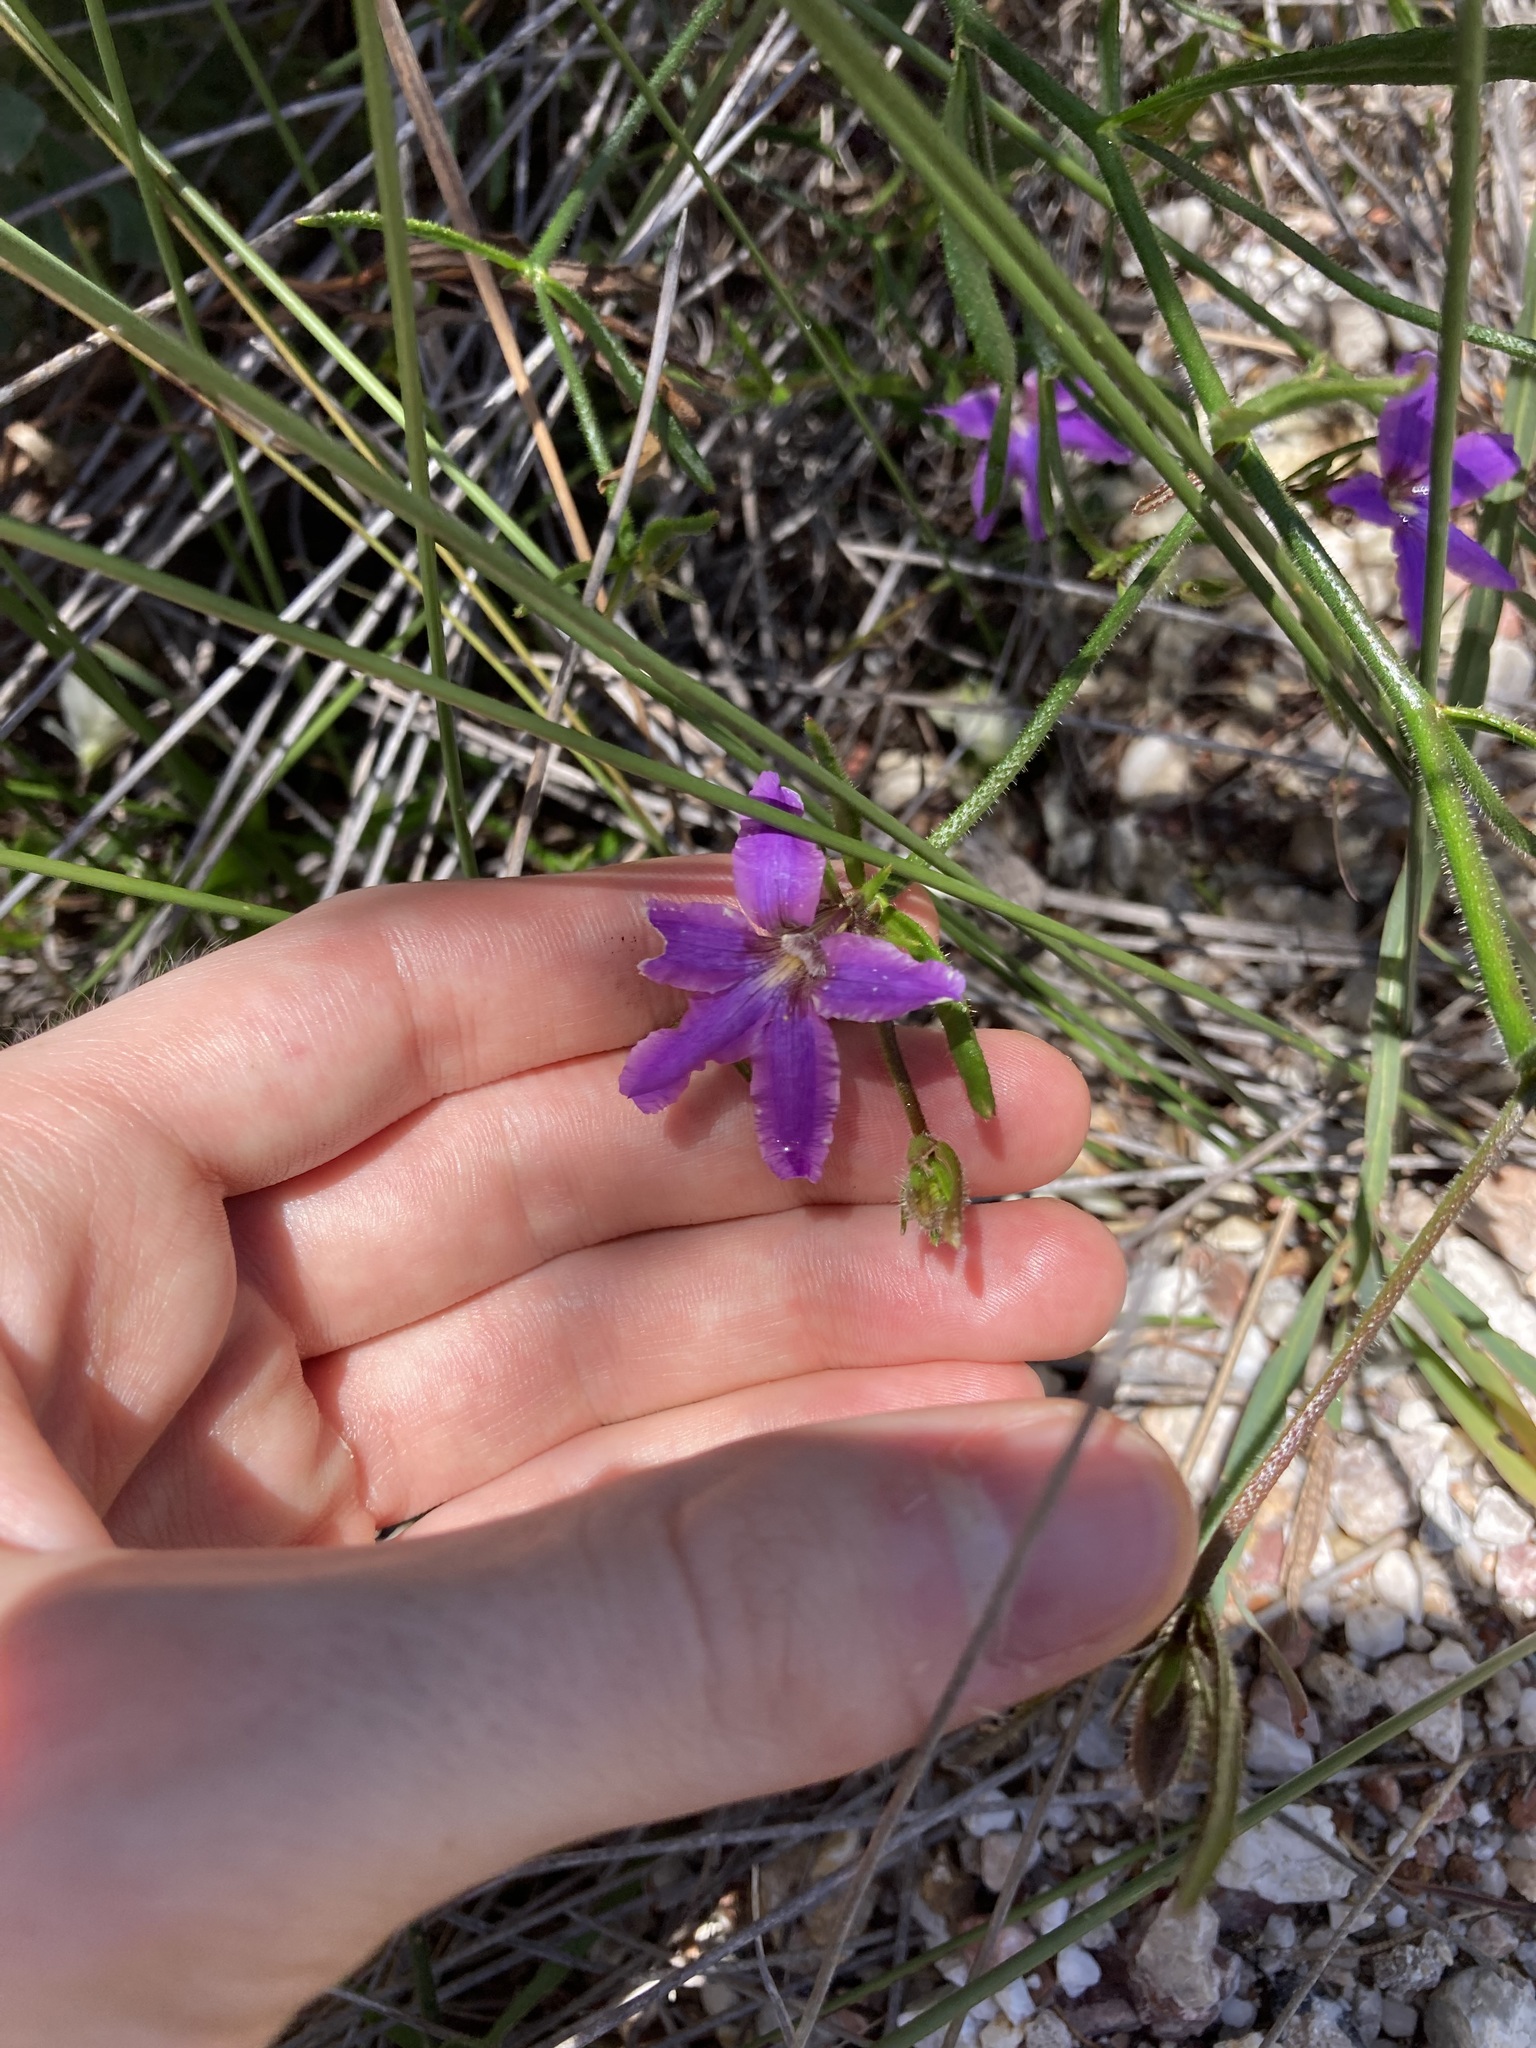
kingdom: Plantae
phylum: Tracheophyta
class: Magnoliopsida
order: Asterales
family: Goodeniaceae
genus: Scaevola
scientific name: Scaevola ramosissima
